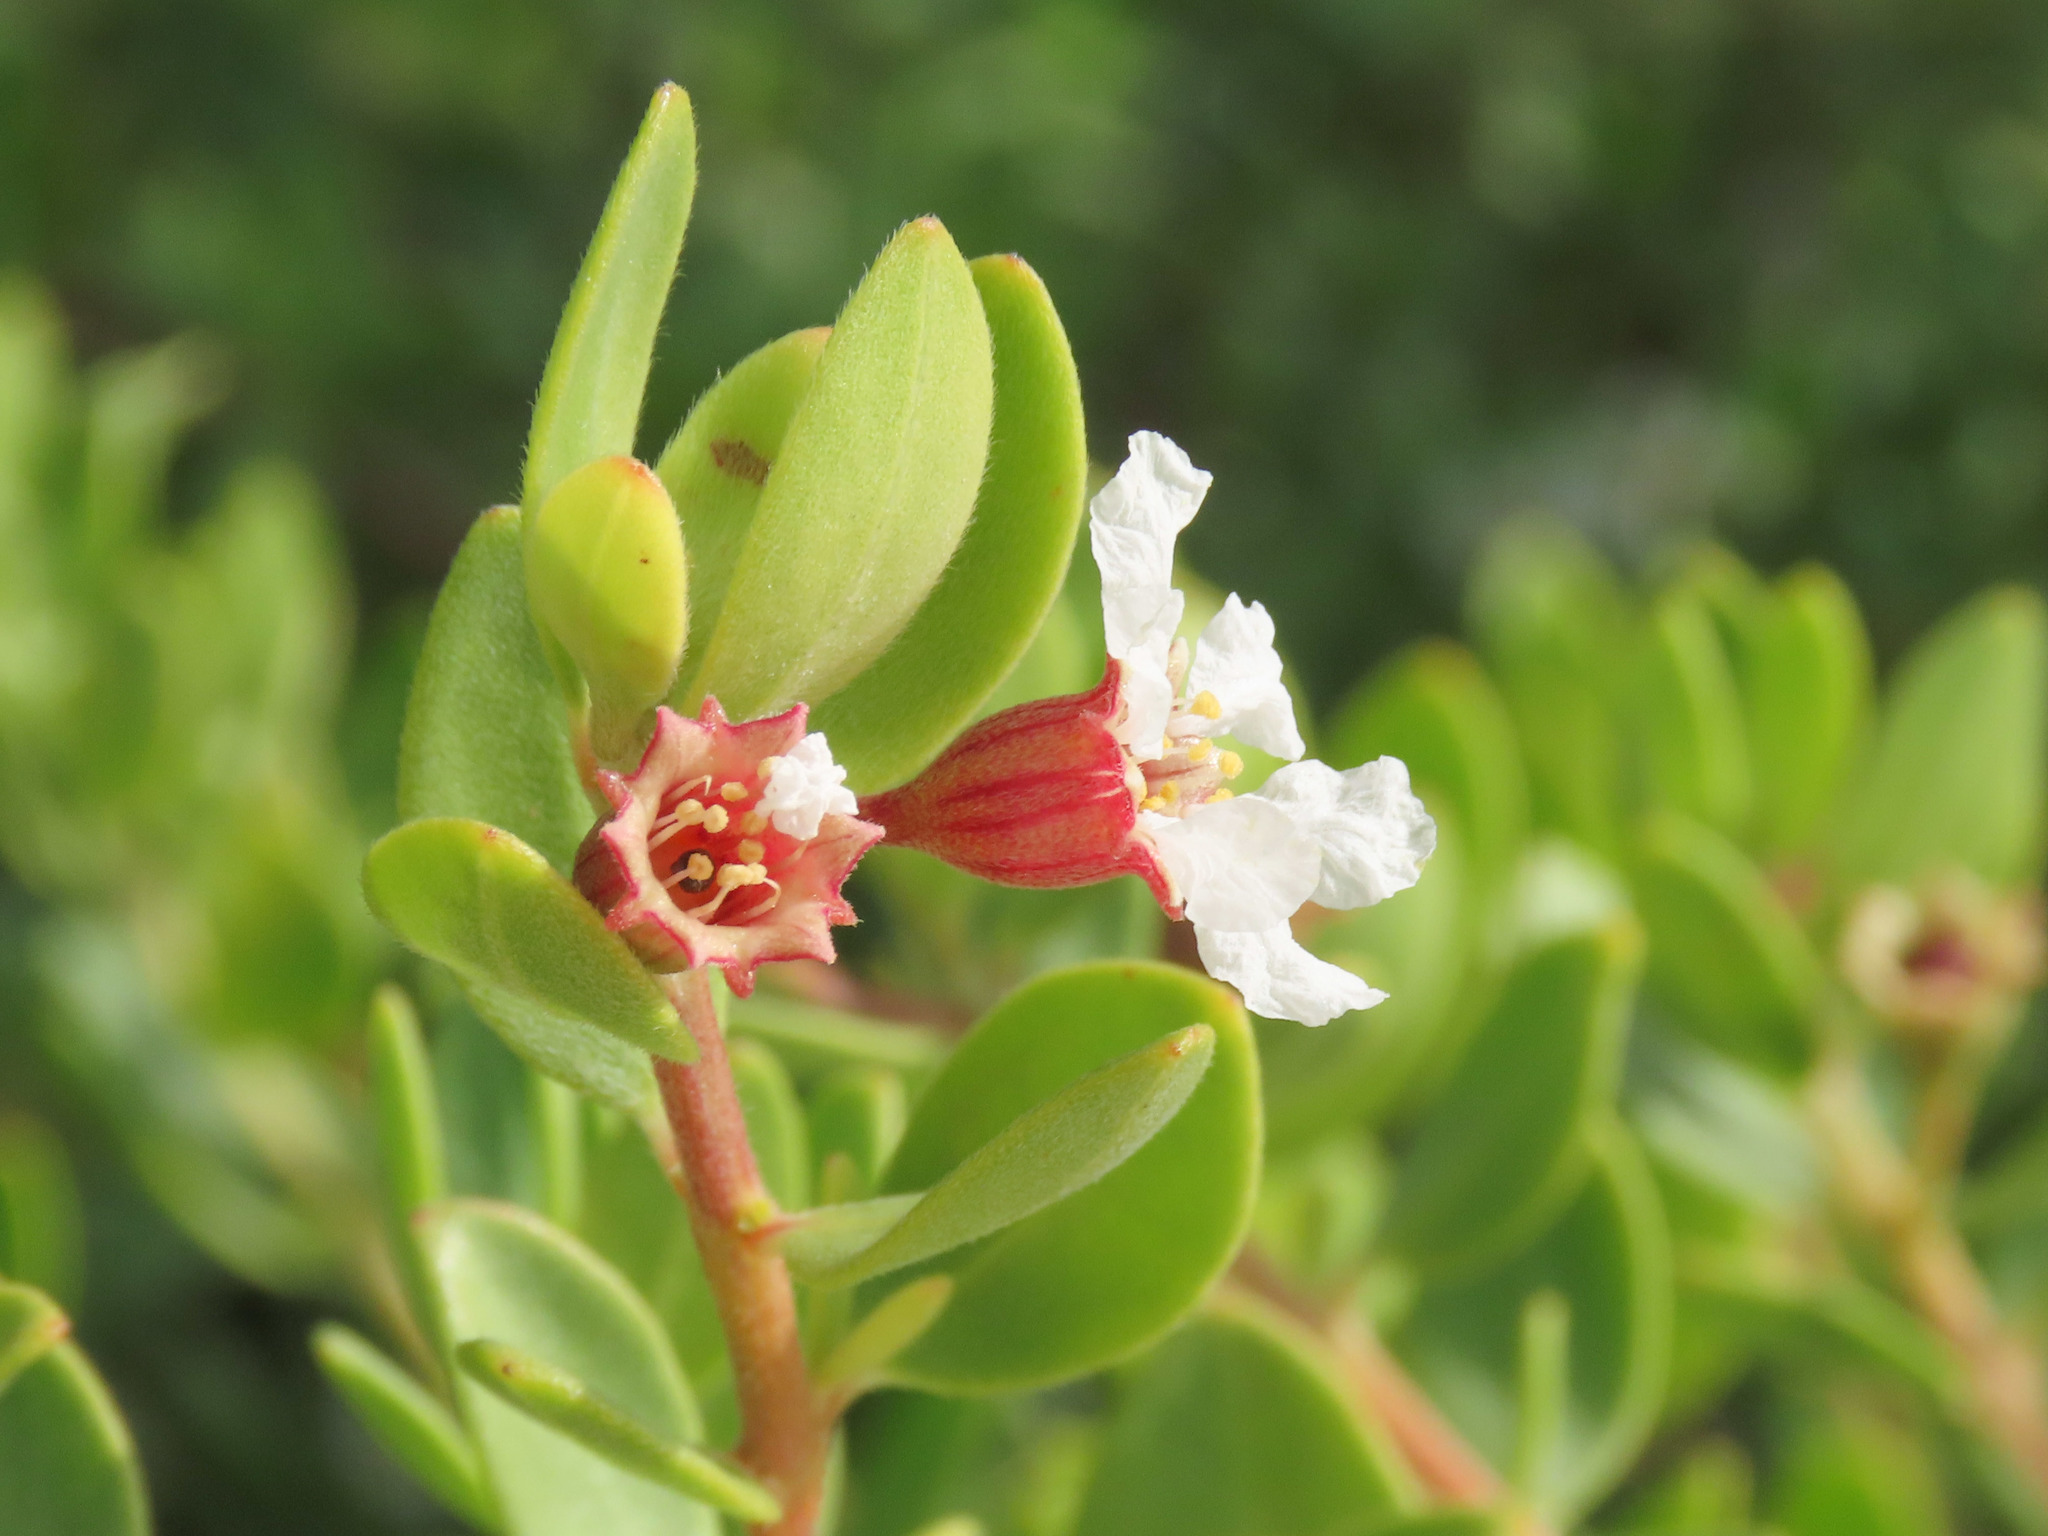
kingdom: Plantae
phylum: Tracheophyta
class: Magnoliopsida
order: Myrtales
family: Lythraceae
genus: Pemphis
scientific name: Pemphis acidula
